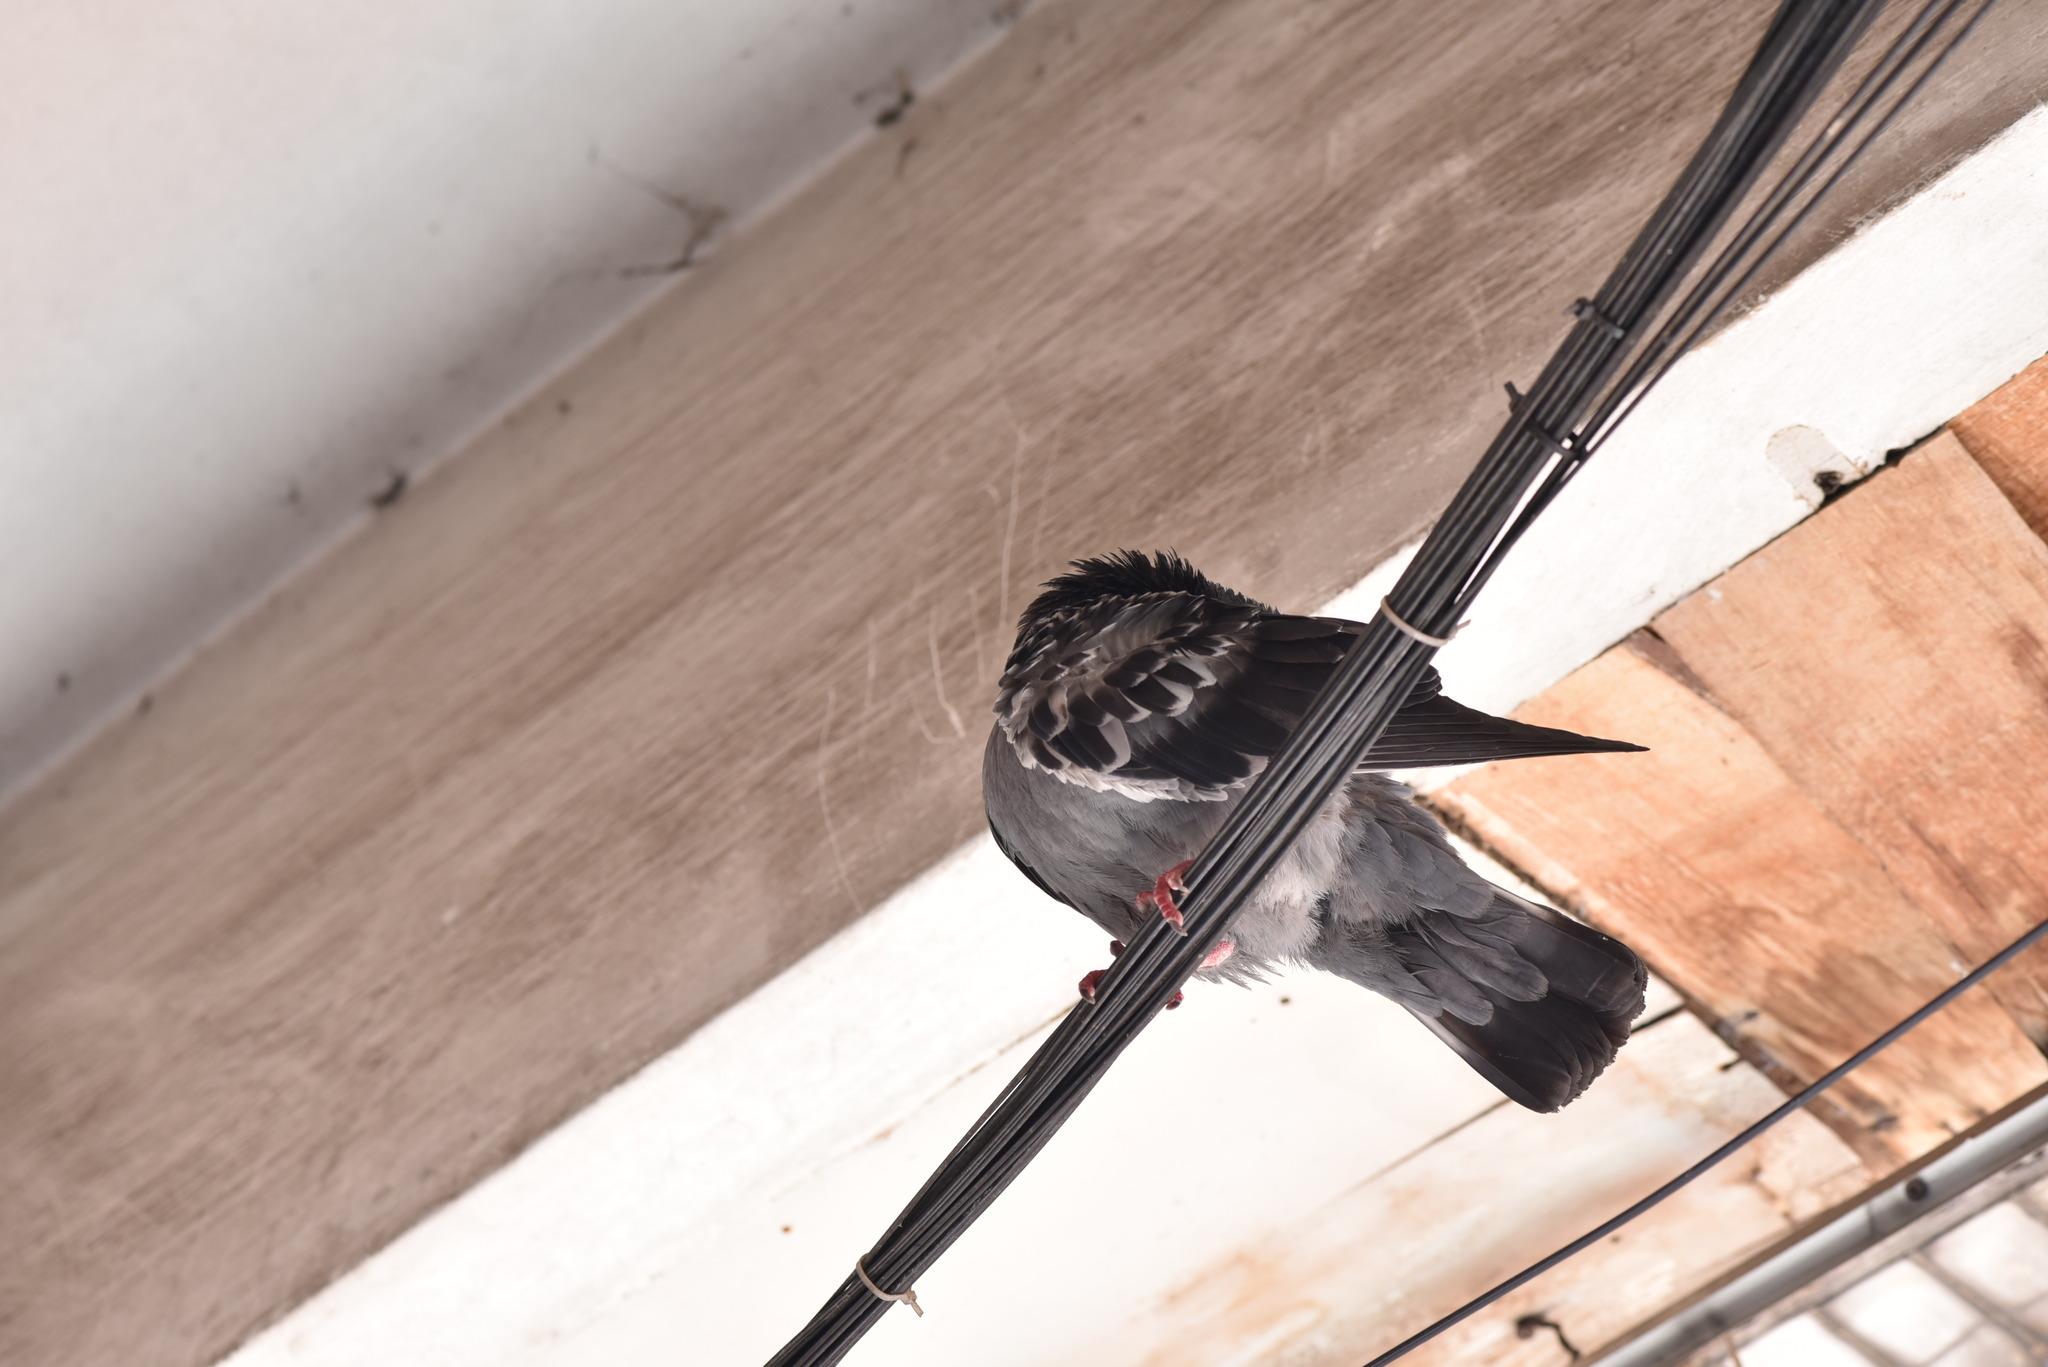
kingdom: Animalia
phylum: Chordata
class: Aves
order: Columbiformes
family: Columbidae
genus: Columba
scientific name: Columba livia
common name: Rock pigeon
